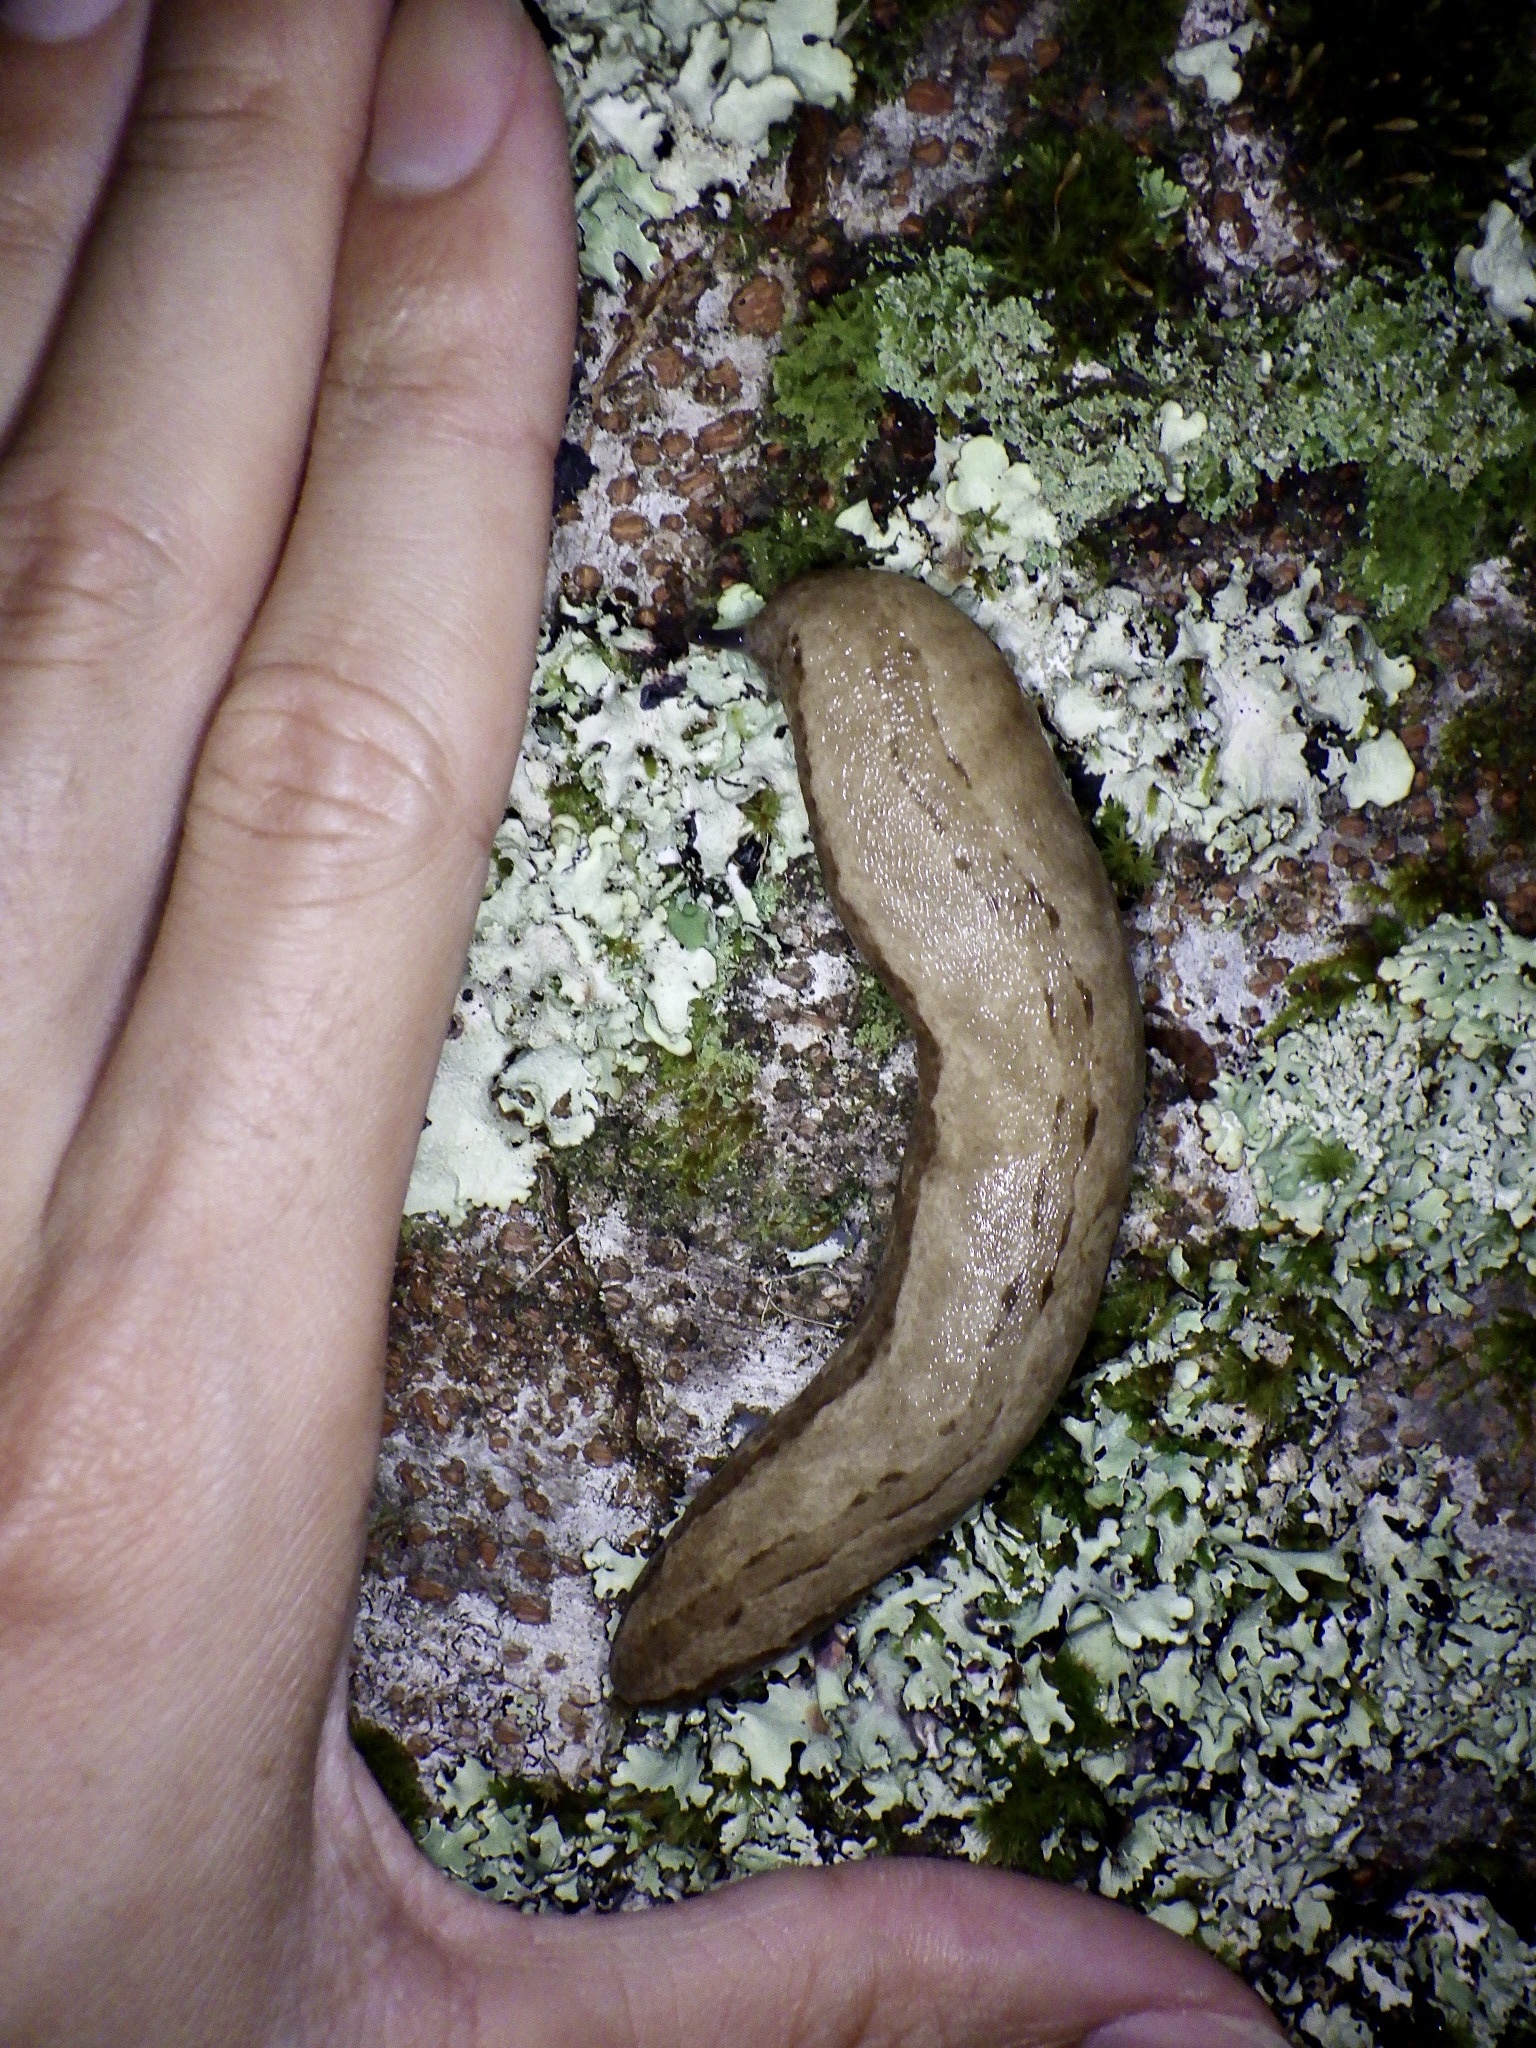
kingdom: Animalia
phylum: Mollusca
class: Gastropoda
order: Stylommatophora
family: Philomycidae
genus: Meghimatium
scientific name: Meghimatium fruhstorferi
